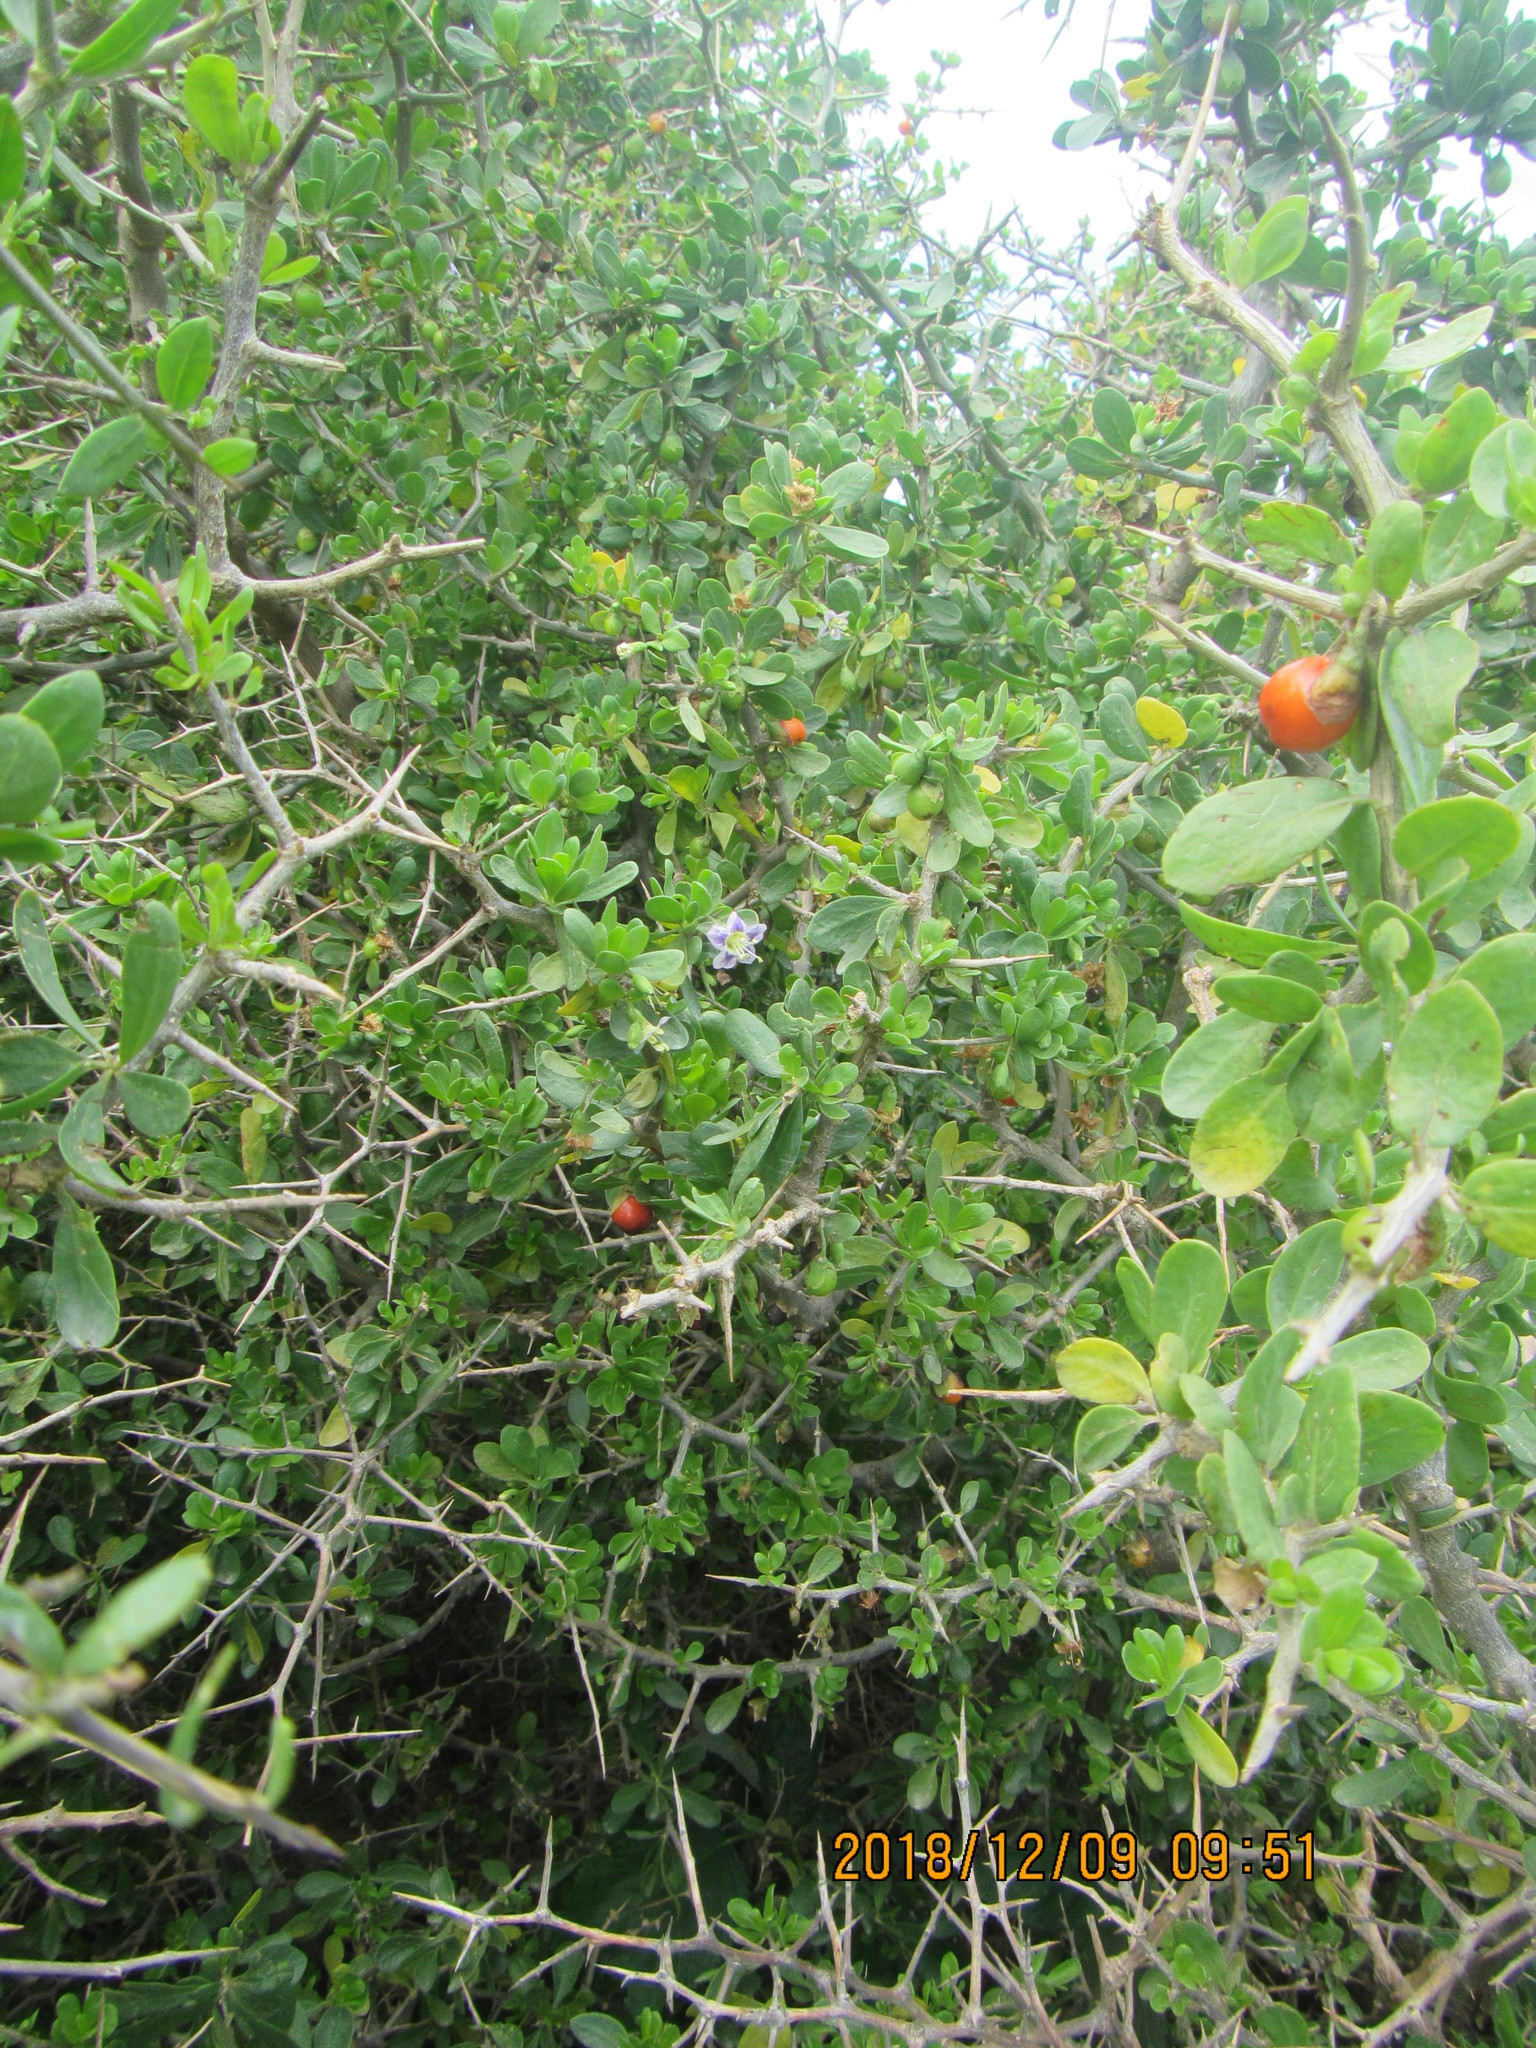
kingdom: Plantae
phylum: Tracheophyta
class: Magnoliopsida
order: Solanales
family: Solanaceae
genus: Lycium
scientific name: Lycium ferocissimum
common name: African boxthorn
